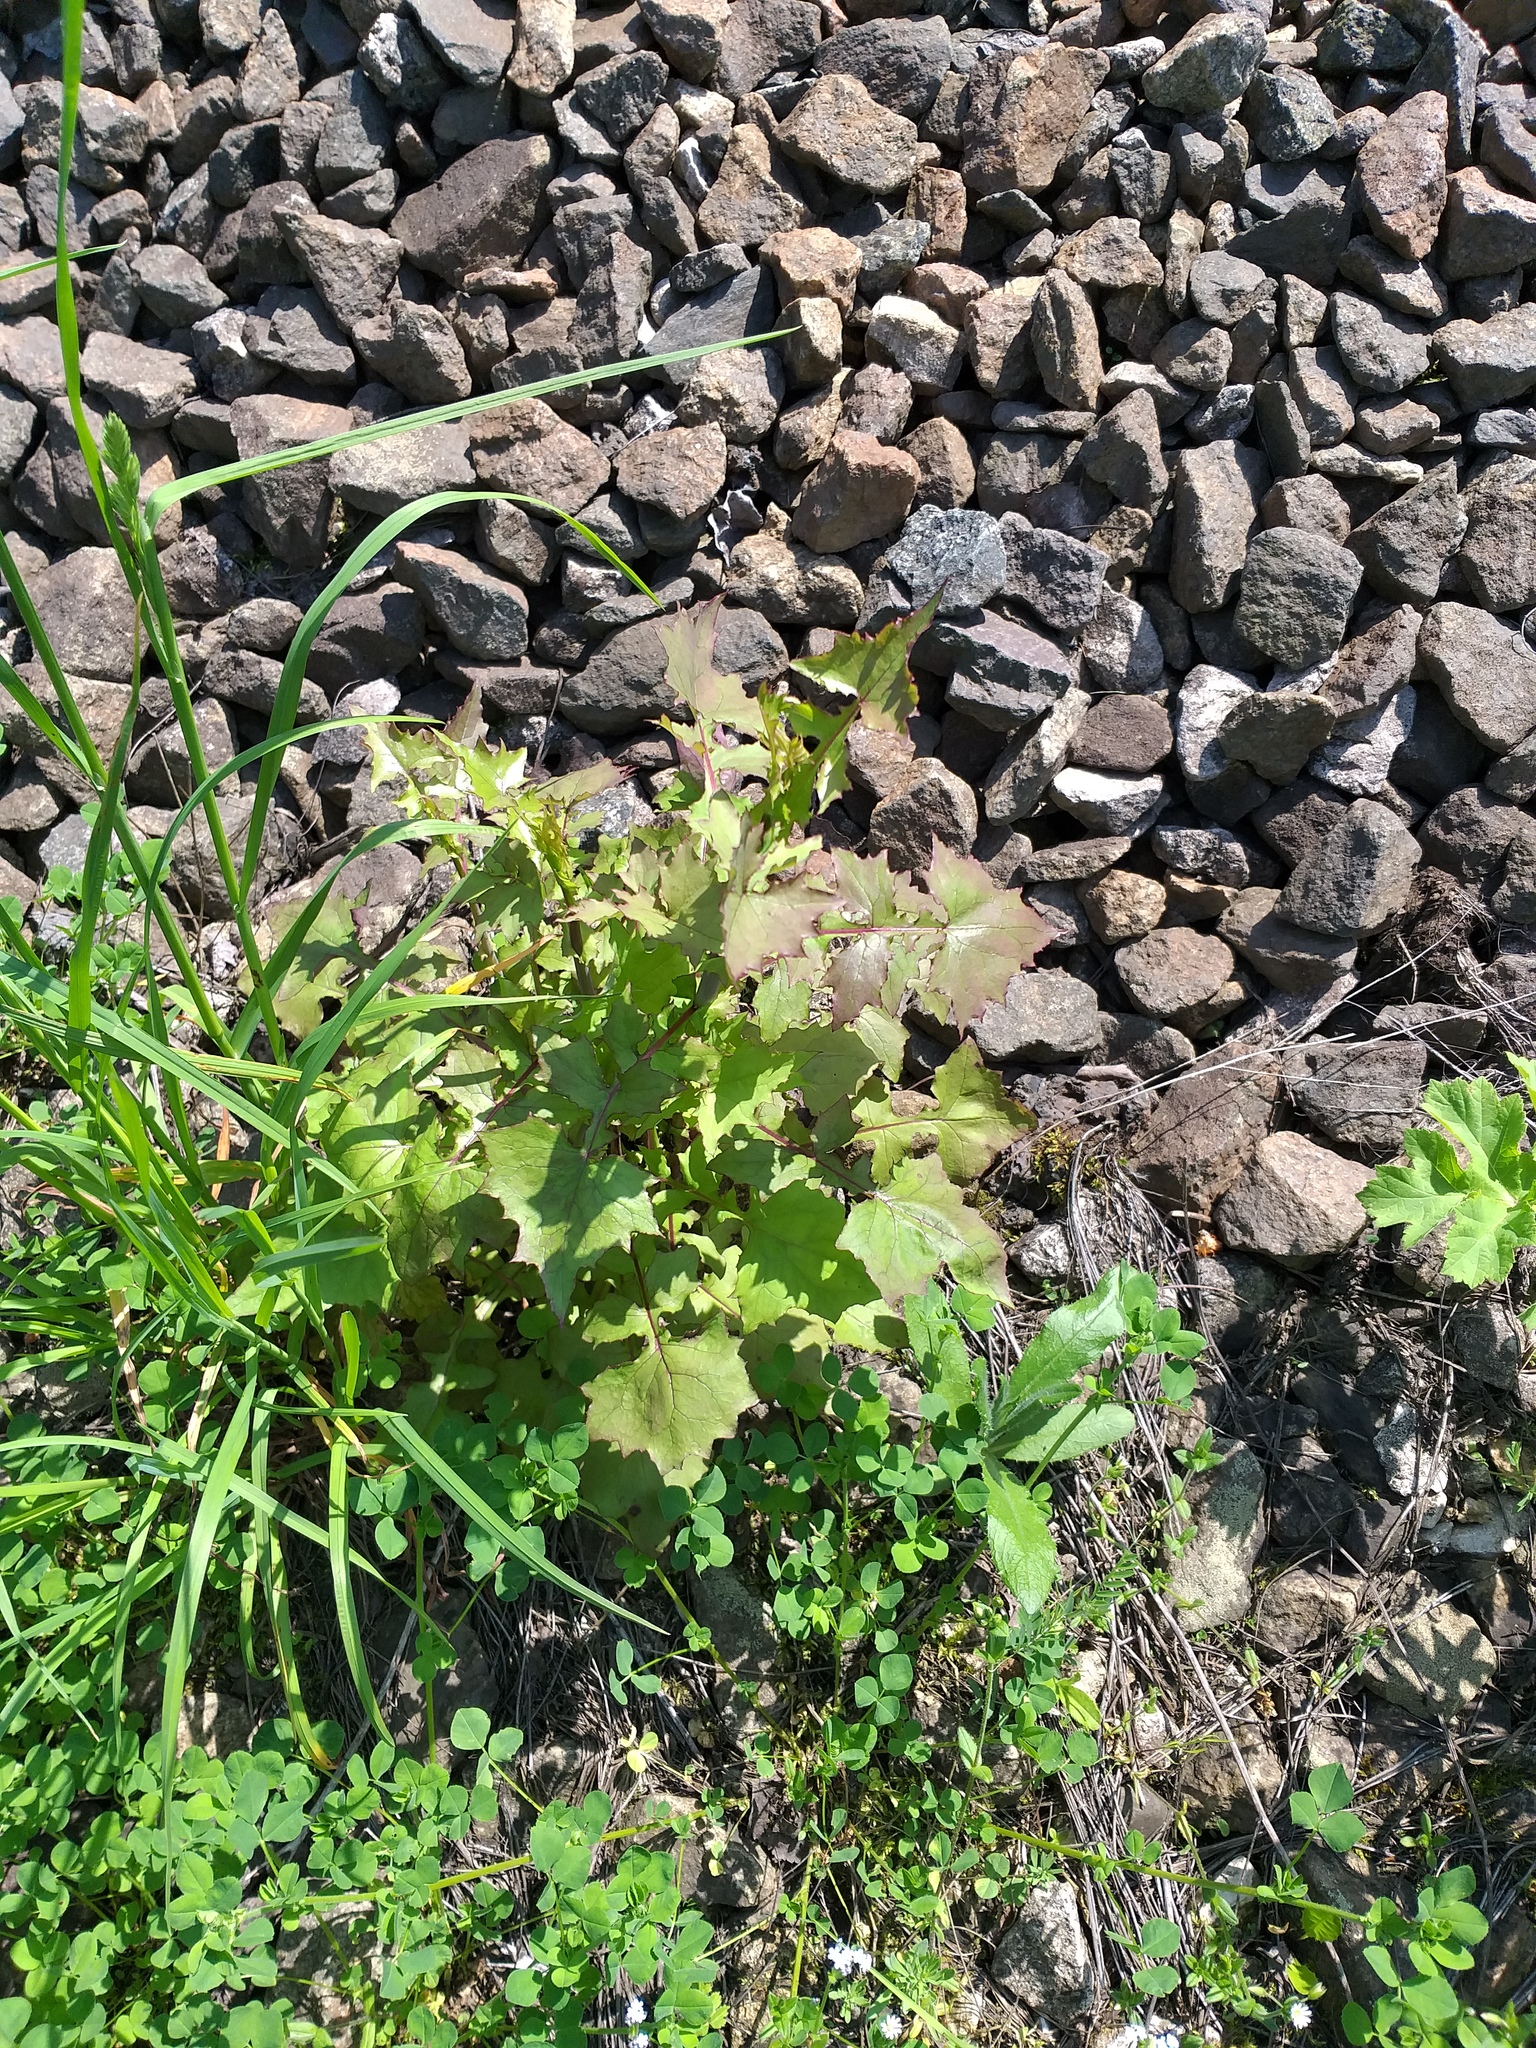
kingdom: Plantae
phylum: Tracheophyta
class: Magnoliopsida
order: Asterales
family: Asteraceae
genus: Mycelis
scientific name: Mycelis muralis
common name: Wall lettuce
